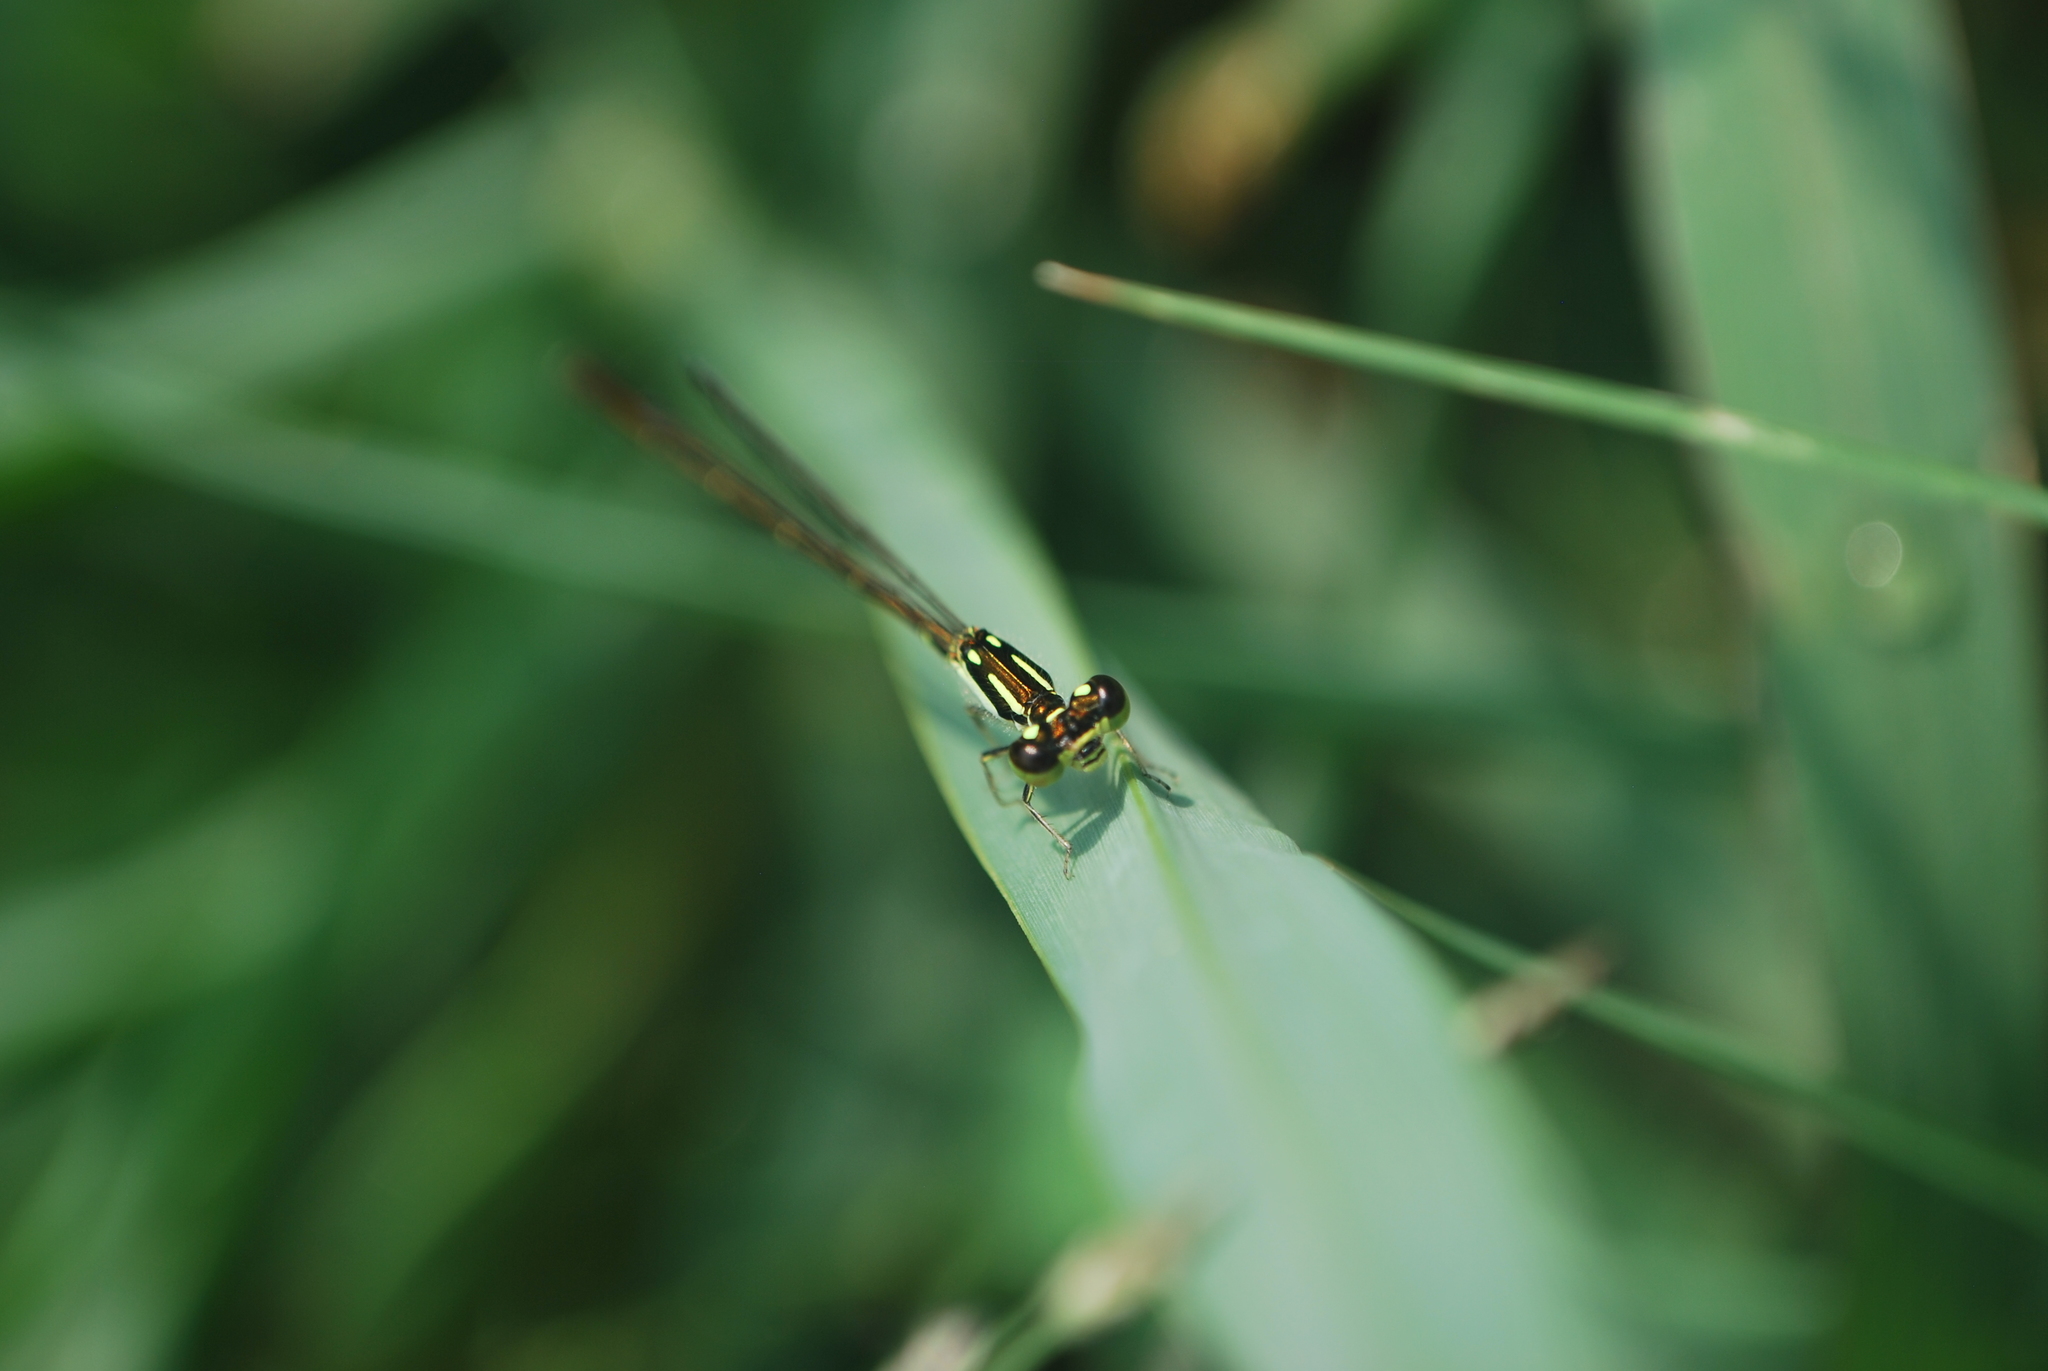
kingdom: Animalia
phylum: Arthropoda
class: Insecta
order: Odonata
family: Coenagrionidae
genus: Ischnura
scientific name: Ischnura posita
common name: Fragile forktail
